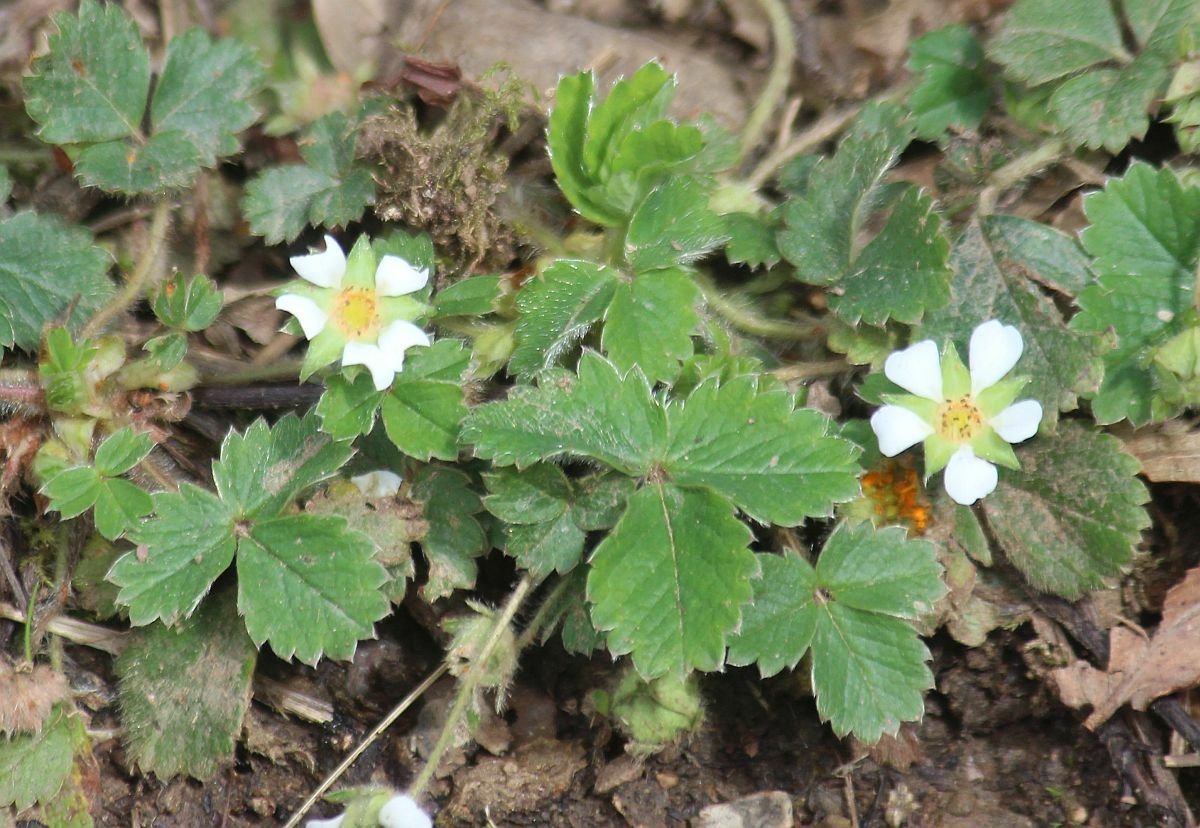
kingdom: Plantae
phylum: Tracheophyta
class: Magnoliopsida
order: Rosales
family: Rosaceae
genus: Potentilla
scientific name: Potentilla sterilis
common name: Barren strawberry
